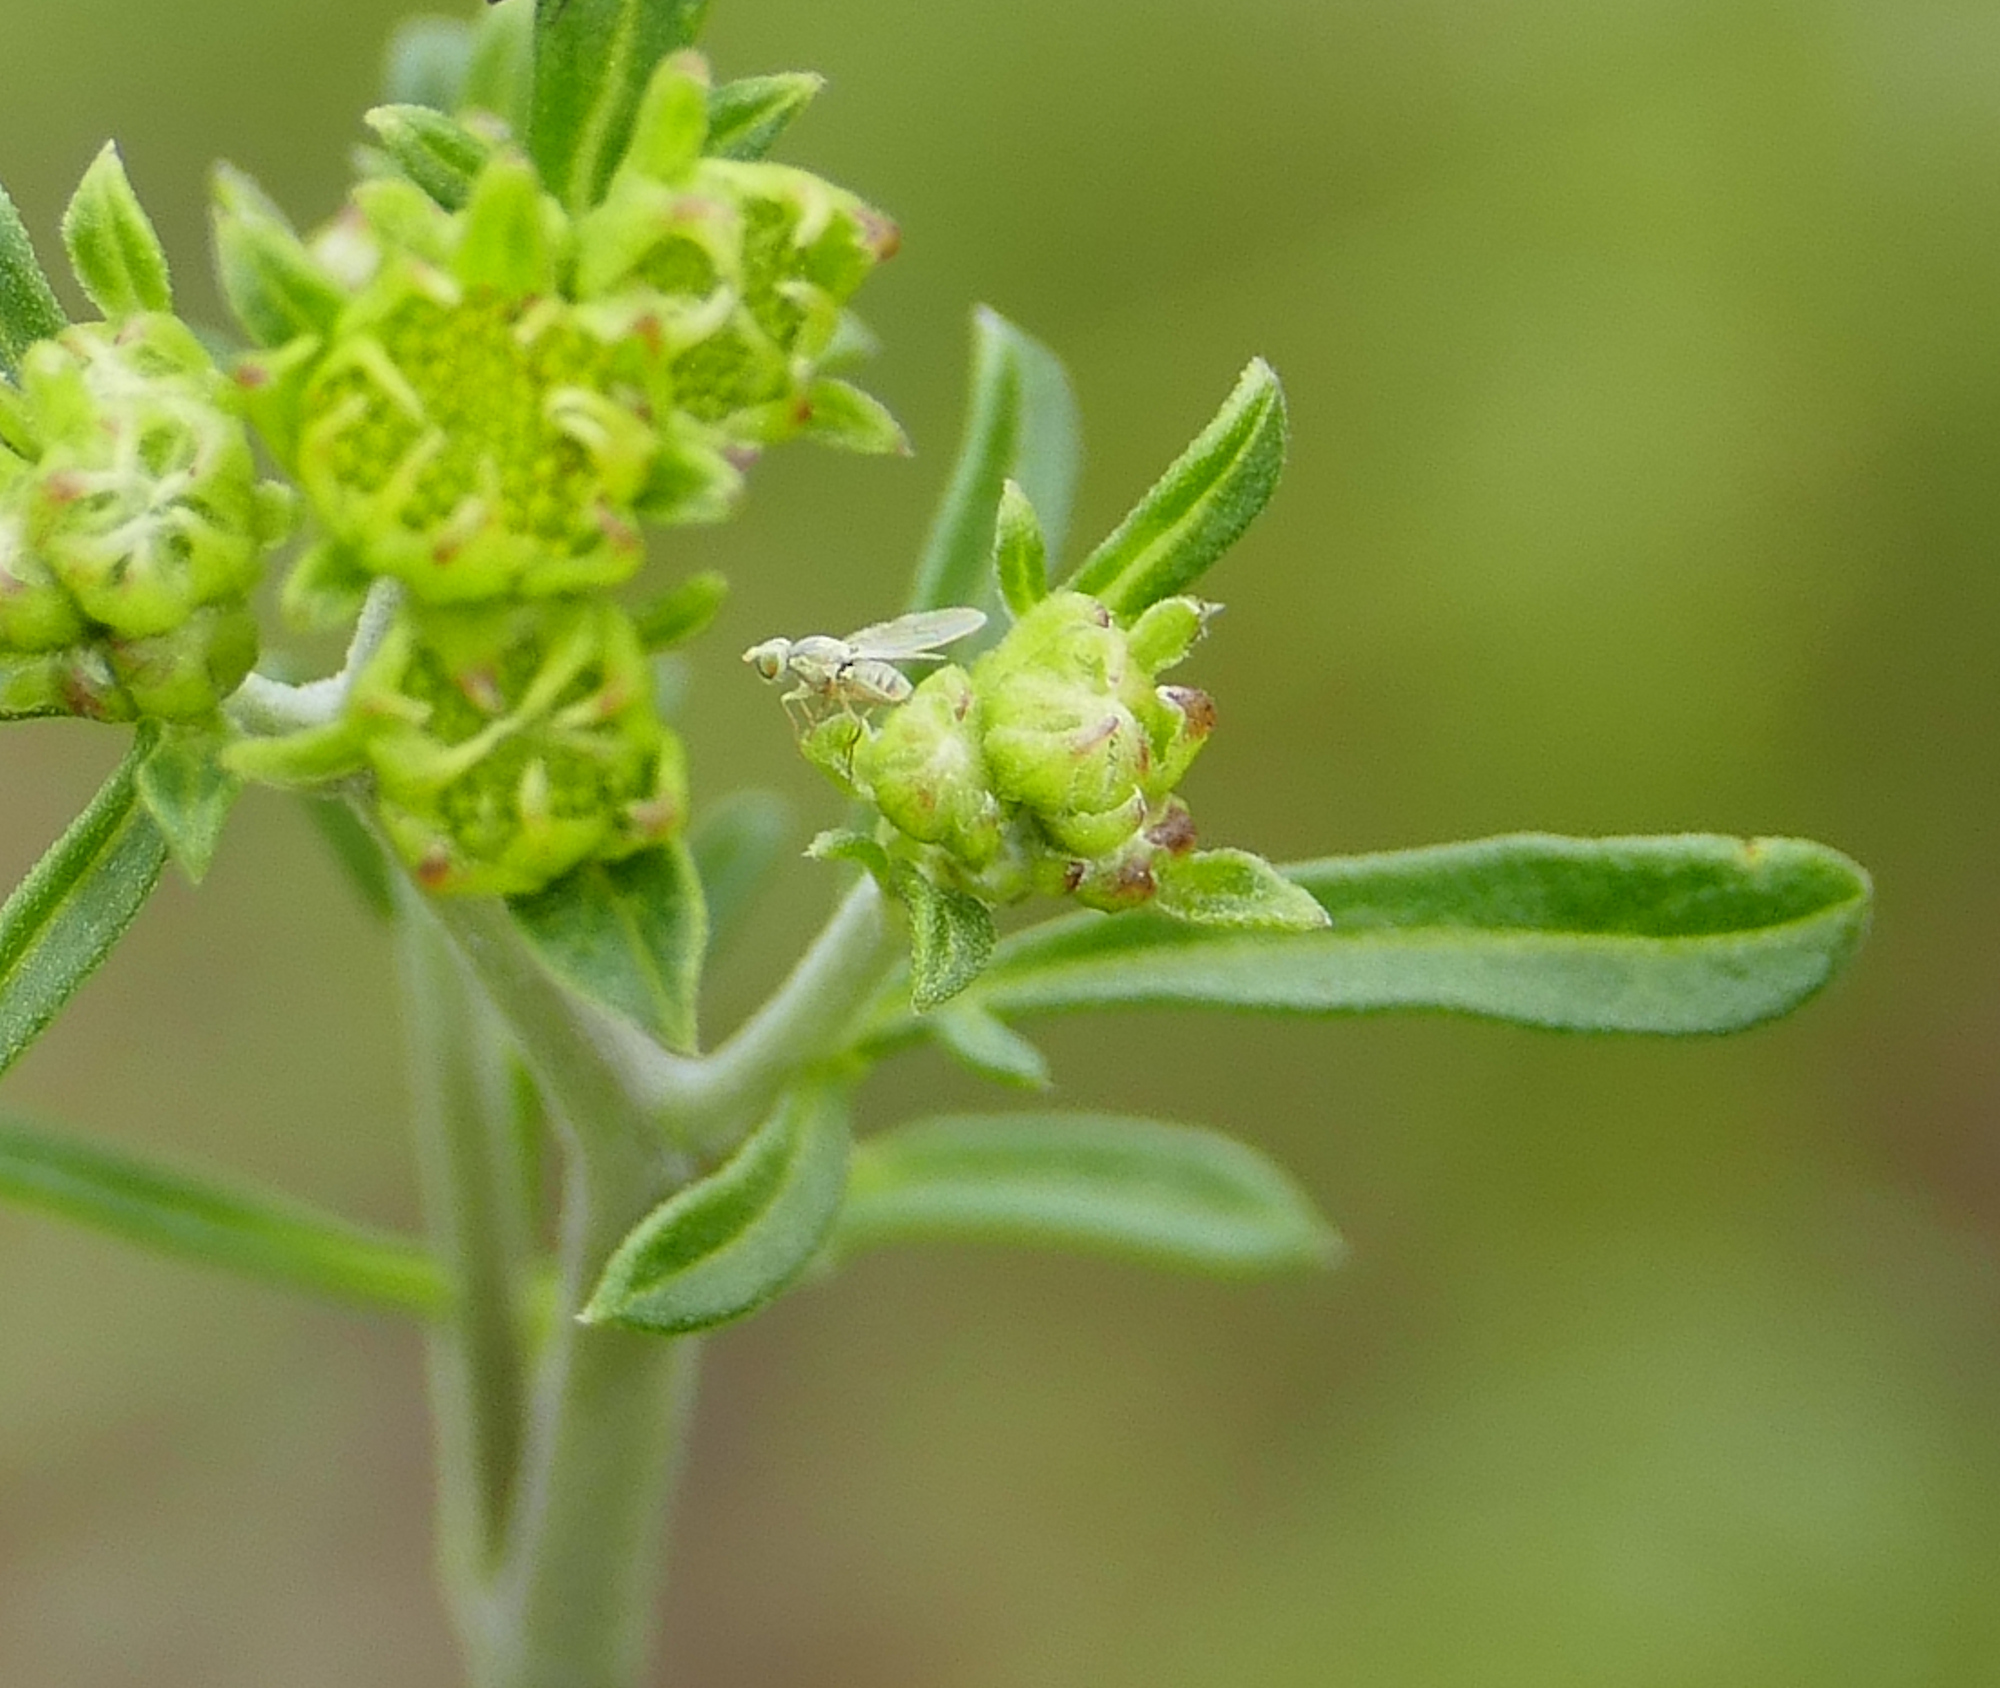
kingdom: Animalia
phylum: Arthropoda
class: Insecta
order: Diptera
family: Tephritidae
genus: Neaspilota
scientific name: Neaspilota
